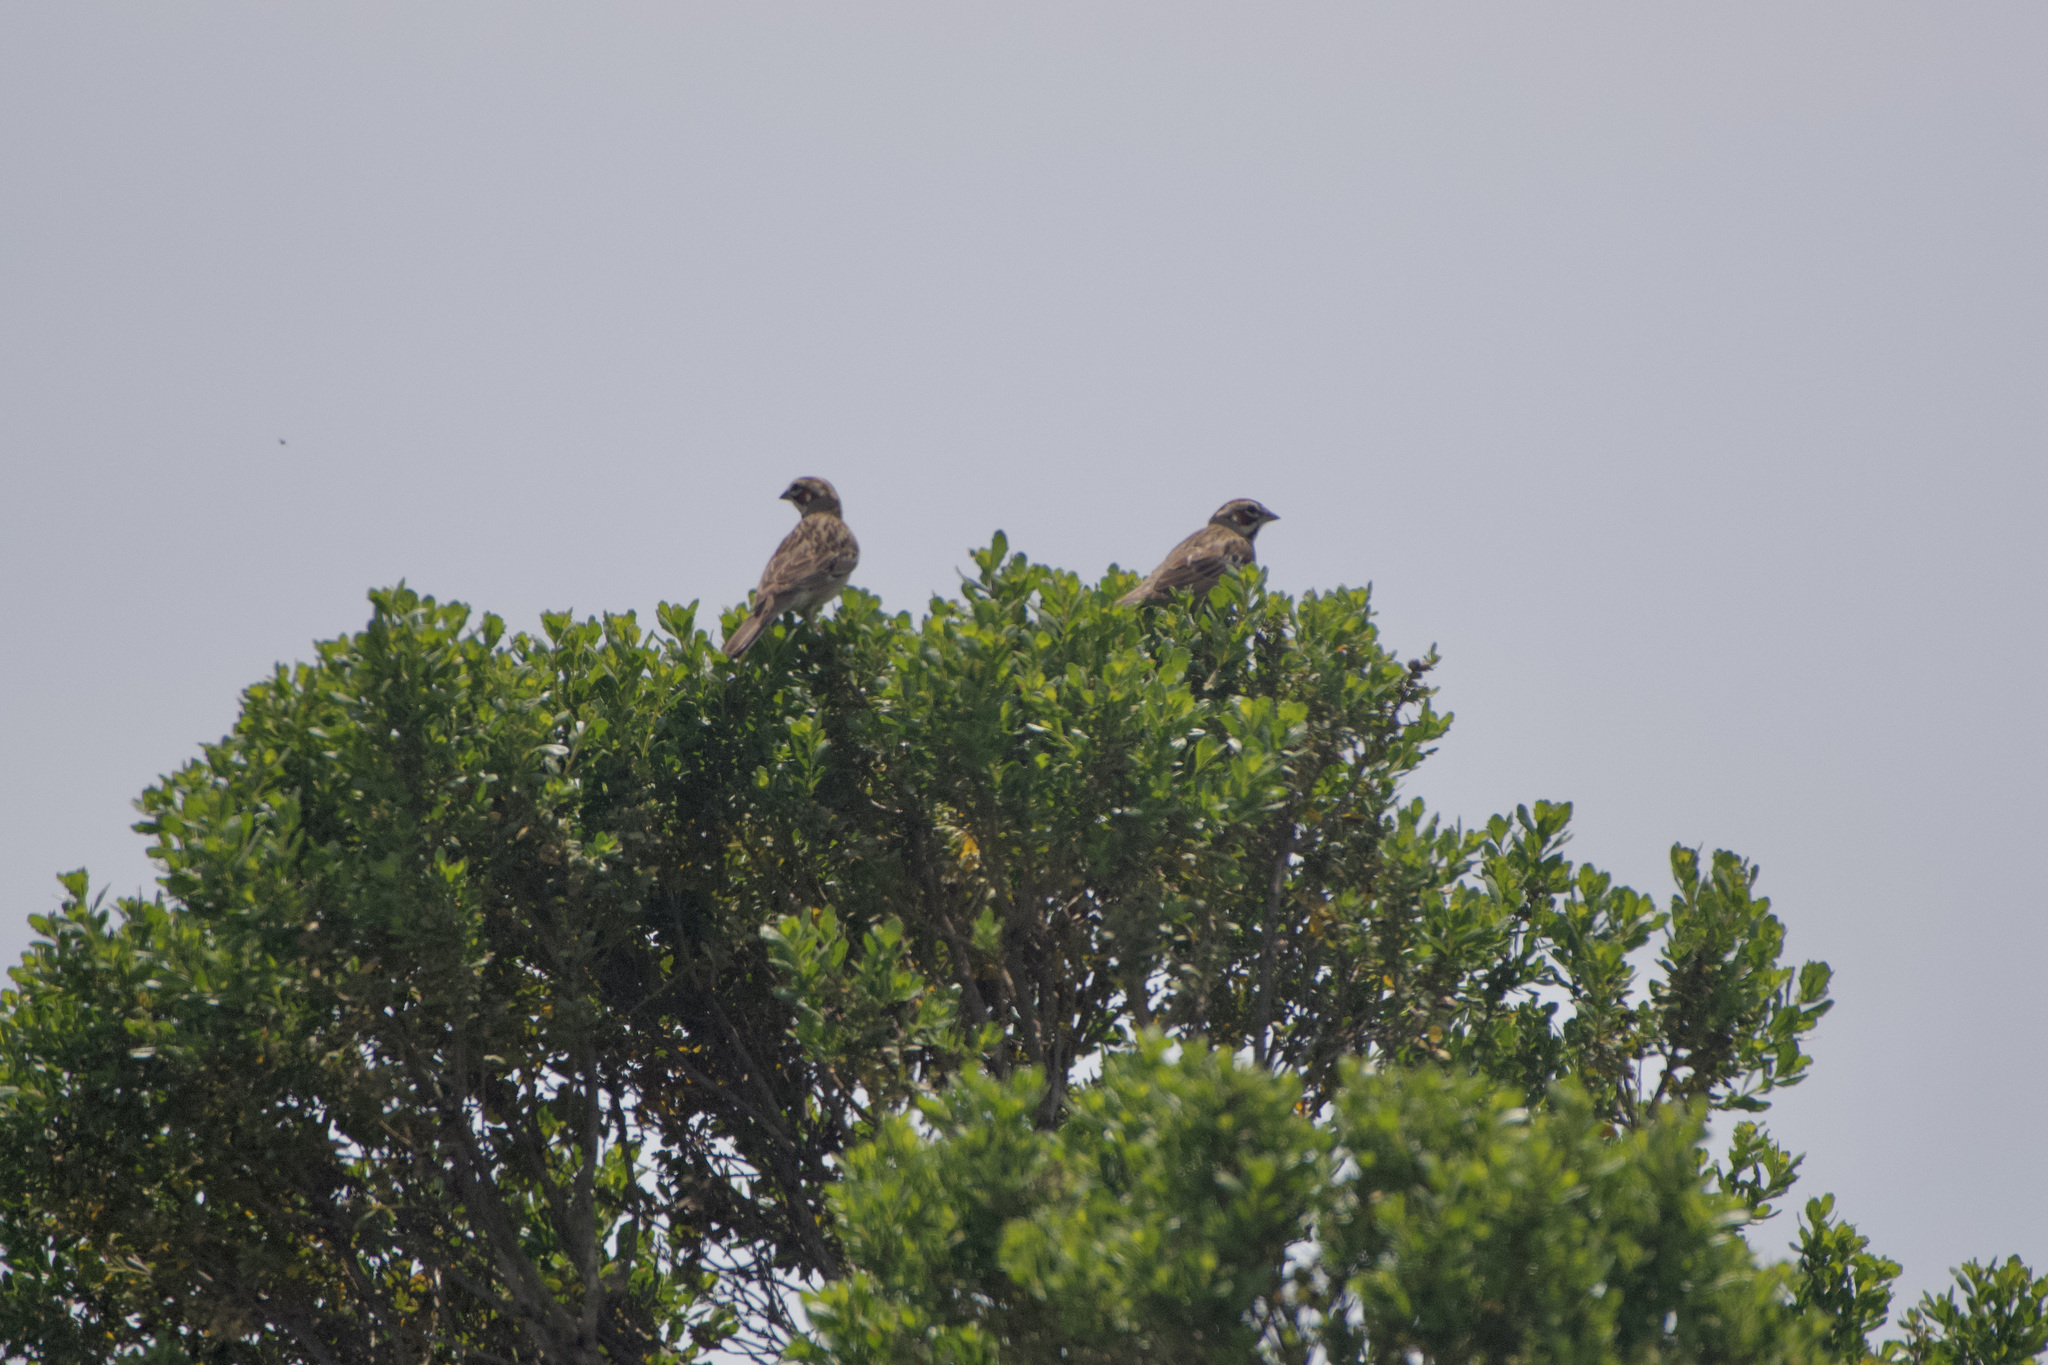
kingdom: Animalia
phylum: Chordata
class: Aves
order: Passeriformes
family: Passerellidae
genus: Chondestes
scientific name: Chondestes grammacus
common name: Lark sparrow
